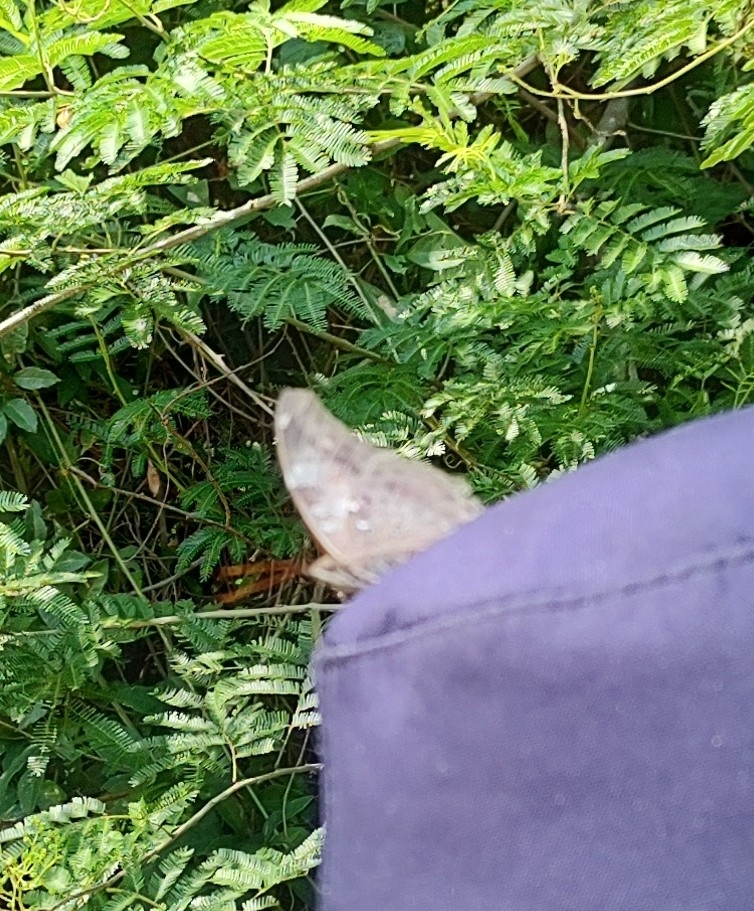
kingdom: Animalia
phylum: Arthropoda
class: Insecta
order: Lepidoptera
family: Nymphalidae
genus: Coea
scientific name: Coea acheronta
